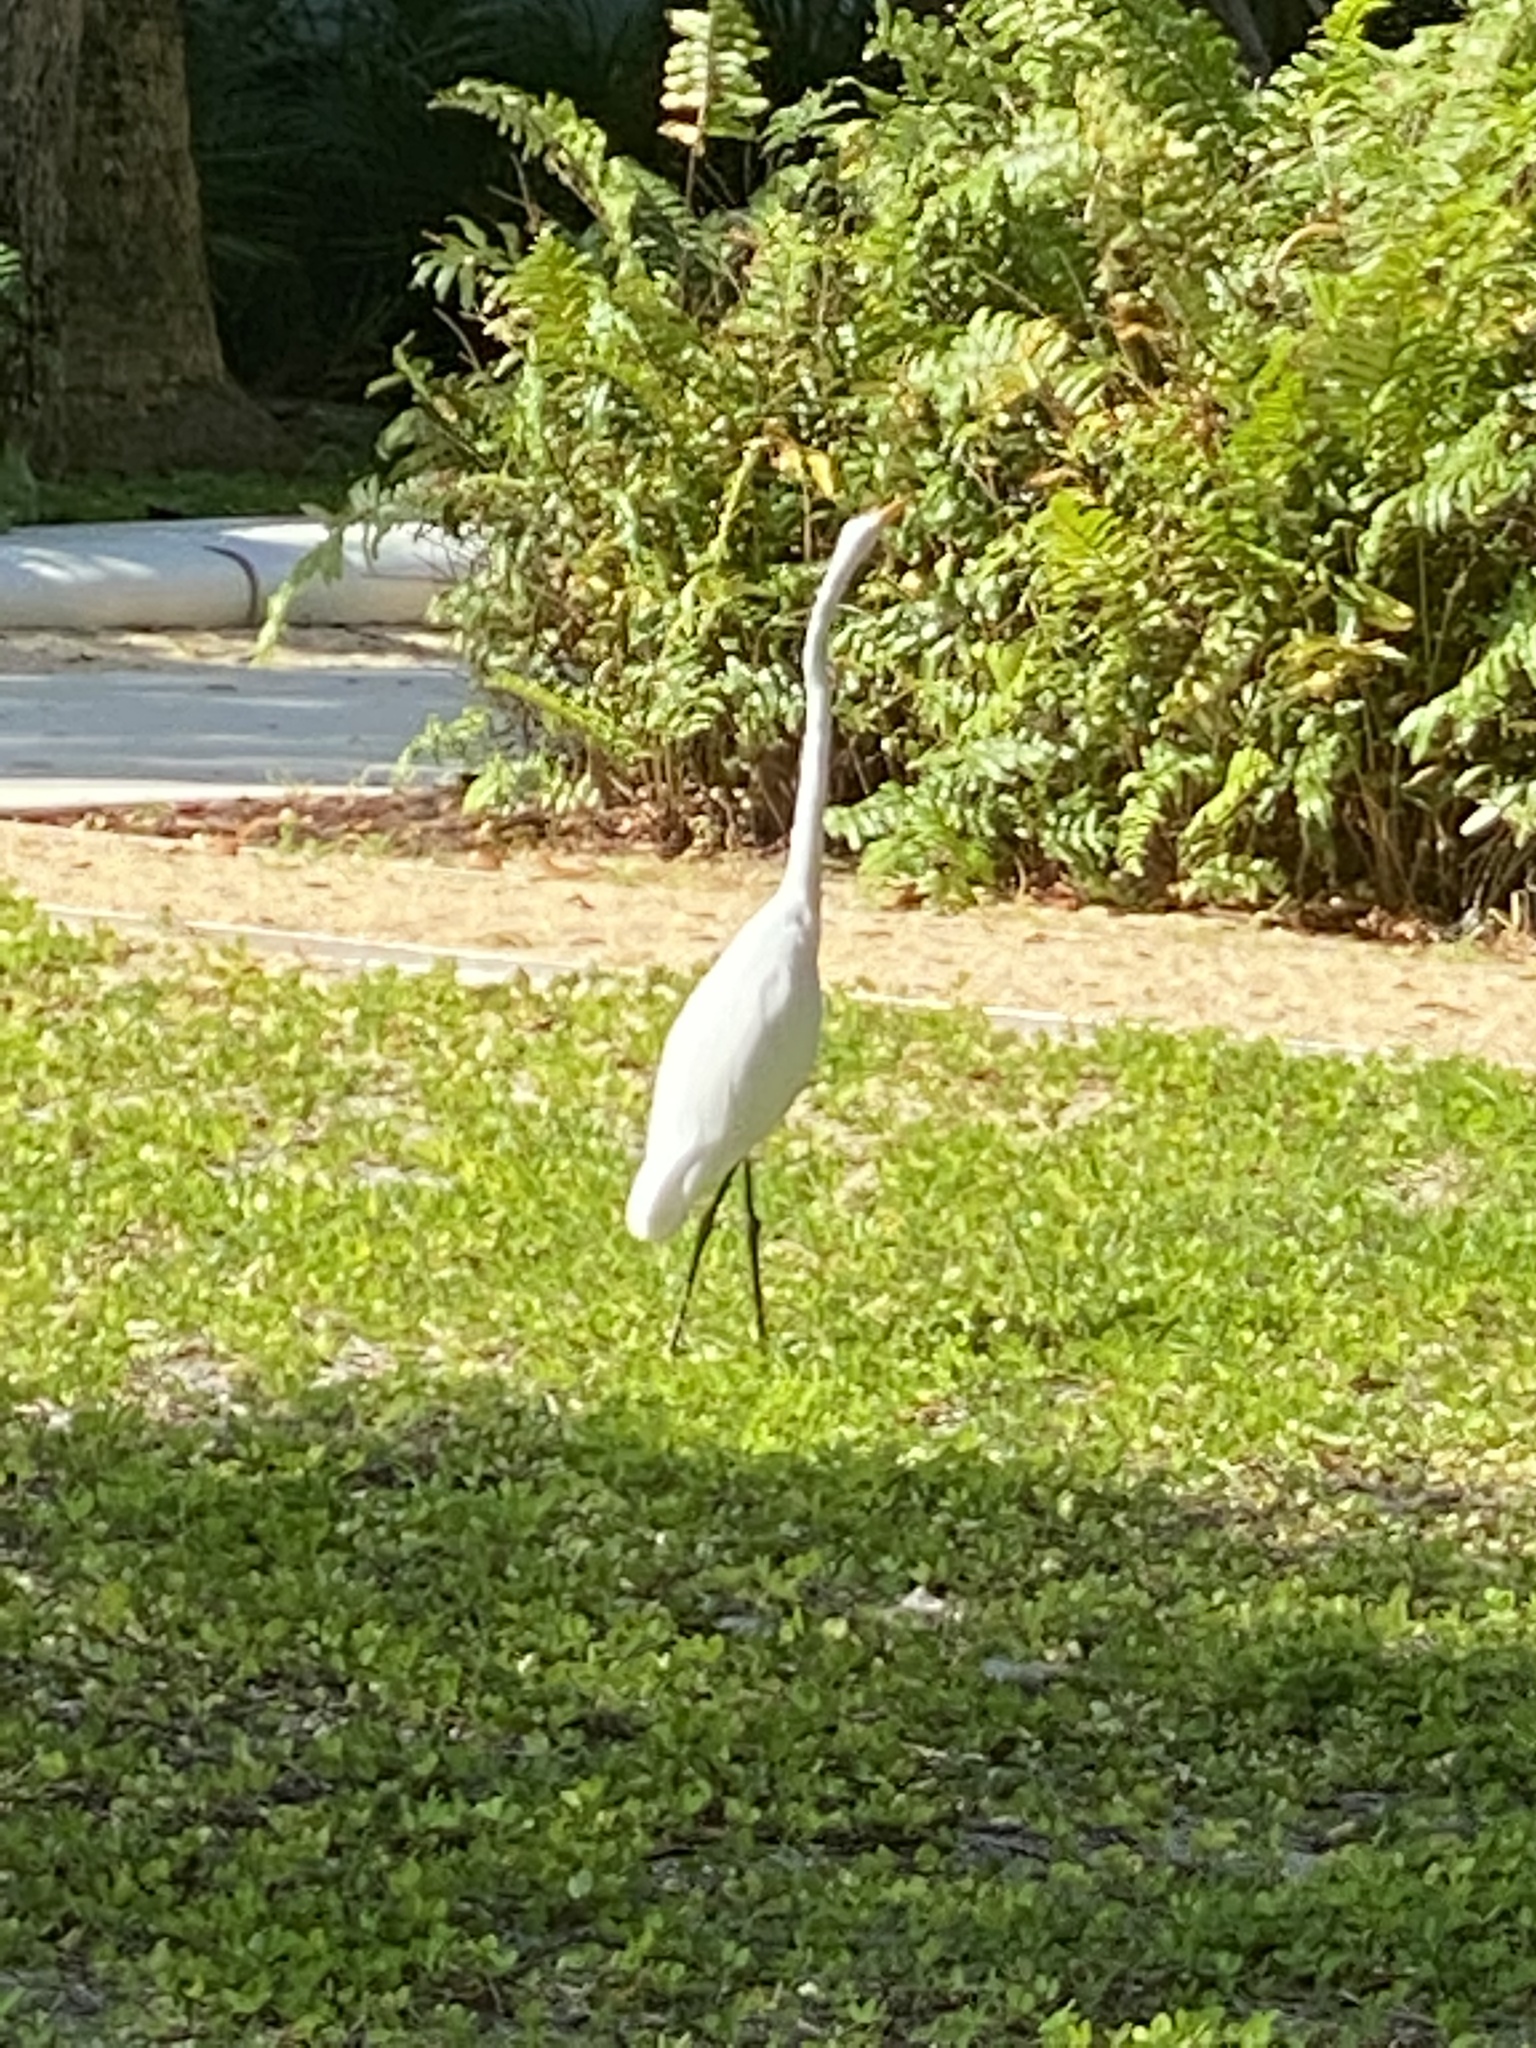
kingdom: Animalia
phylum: Chordata
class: Aves
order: Pelecaniformes
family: Ardeidae
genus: Ardea
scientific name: Ardea alba
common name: Great egret
